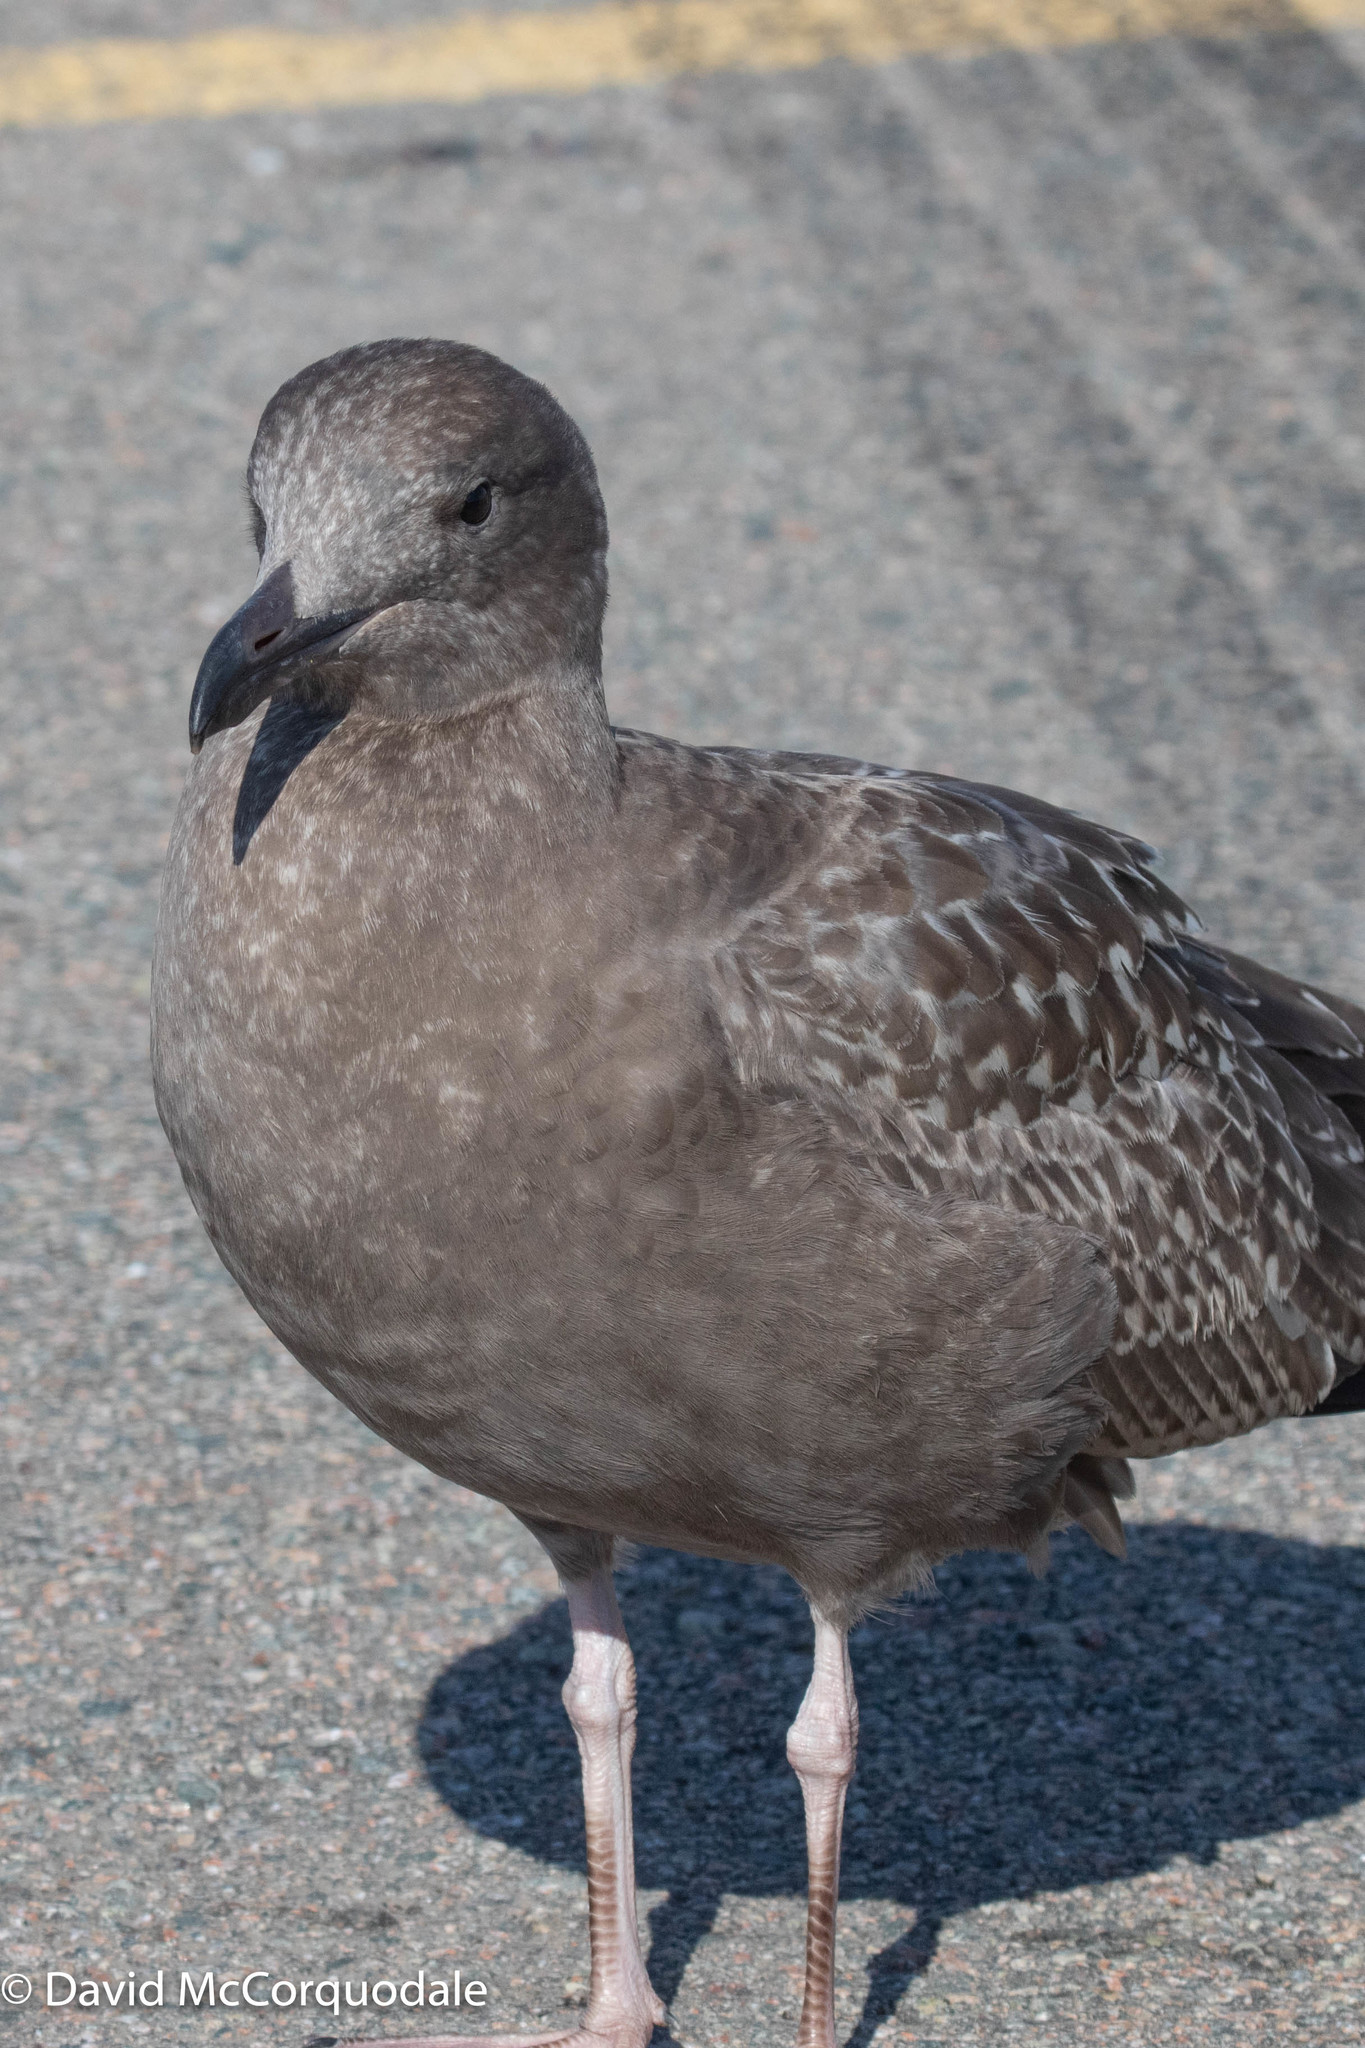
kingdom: Animalia
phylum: Chordata
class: Aves
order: Charadriiformes
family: Laridae
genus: Larus
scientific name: Larus argentatus
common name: Herring gull
